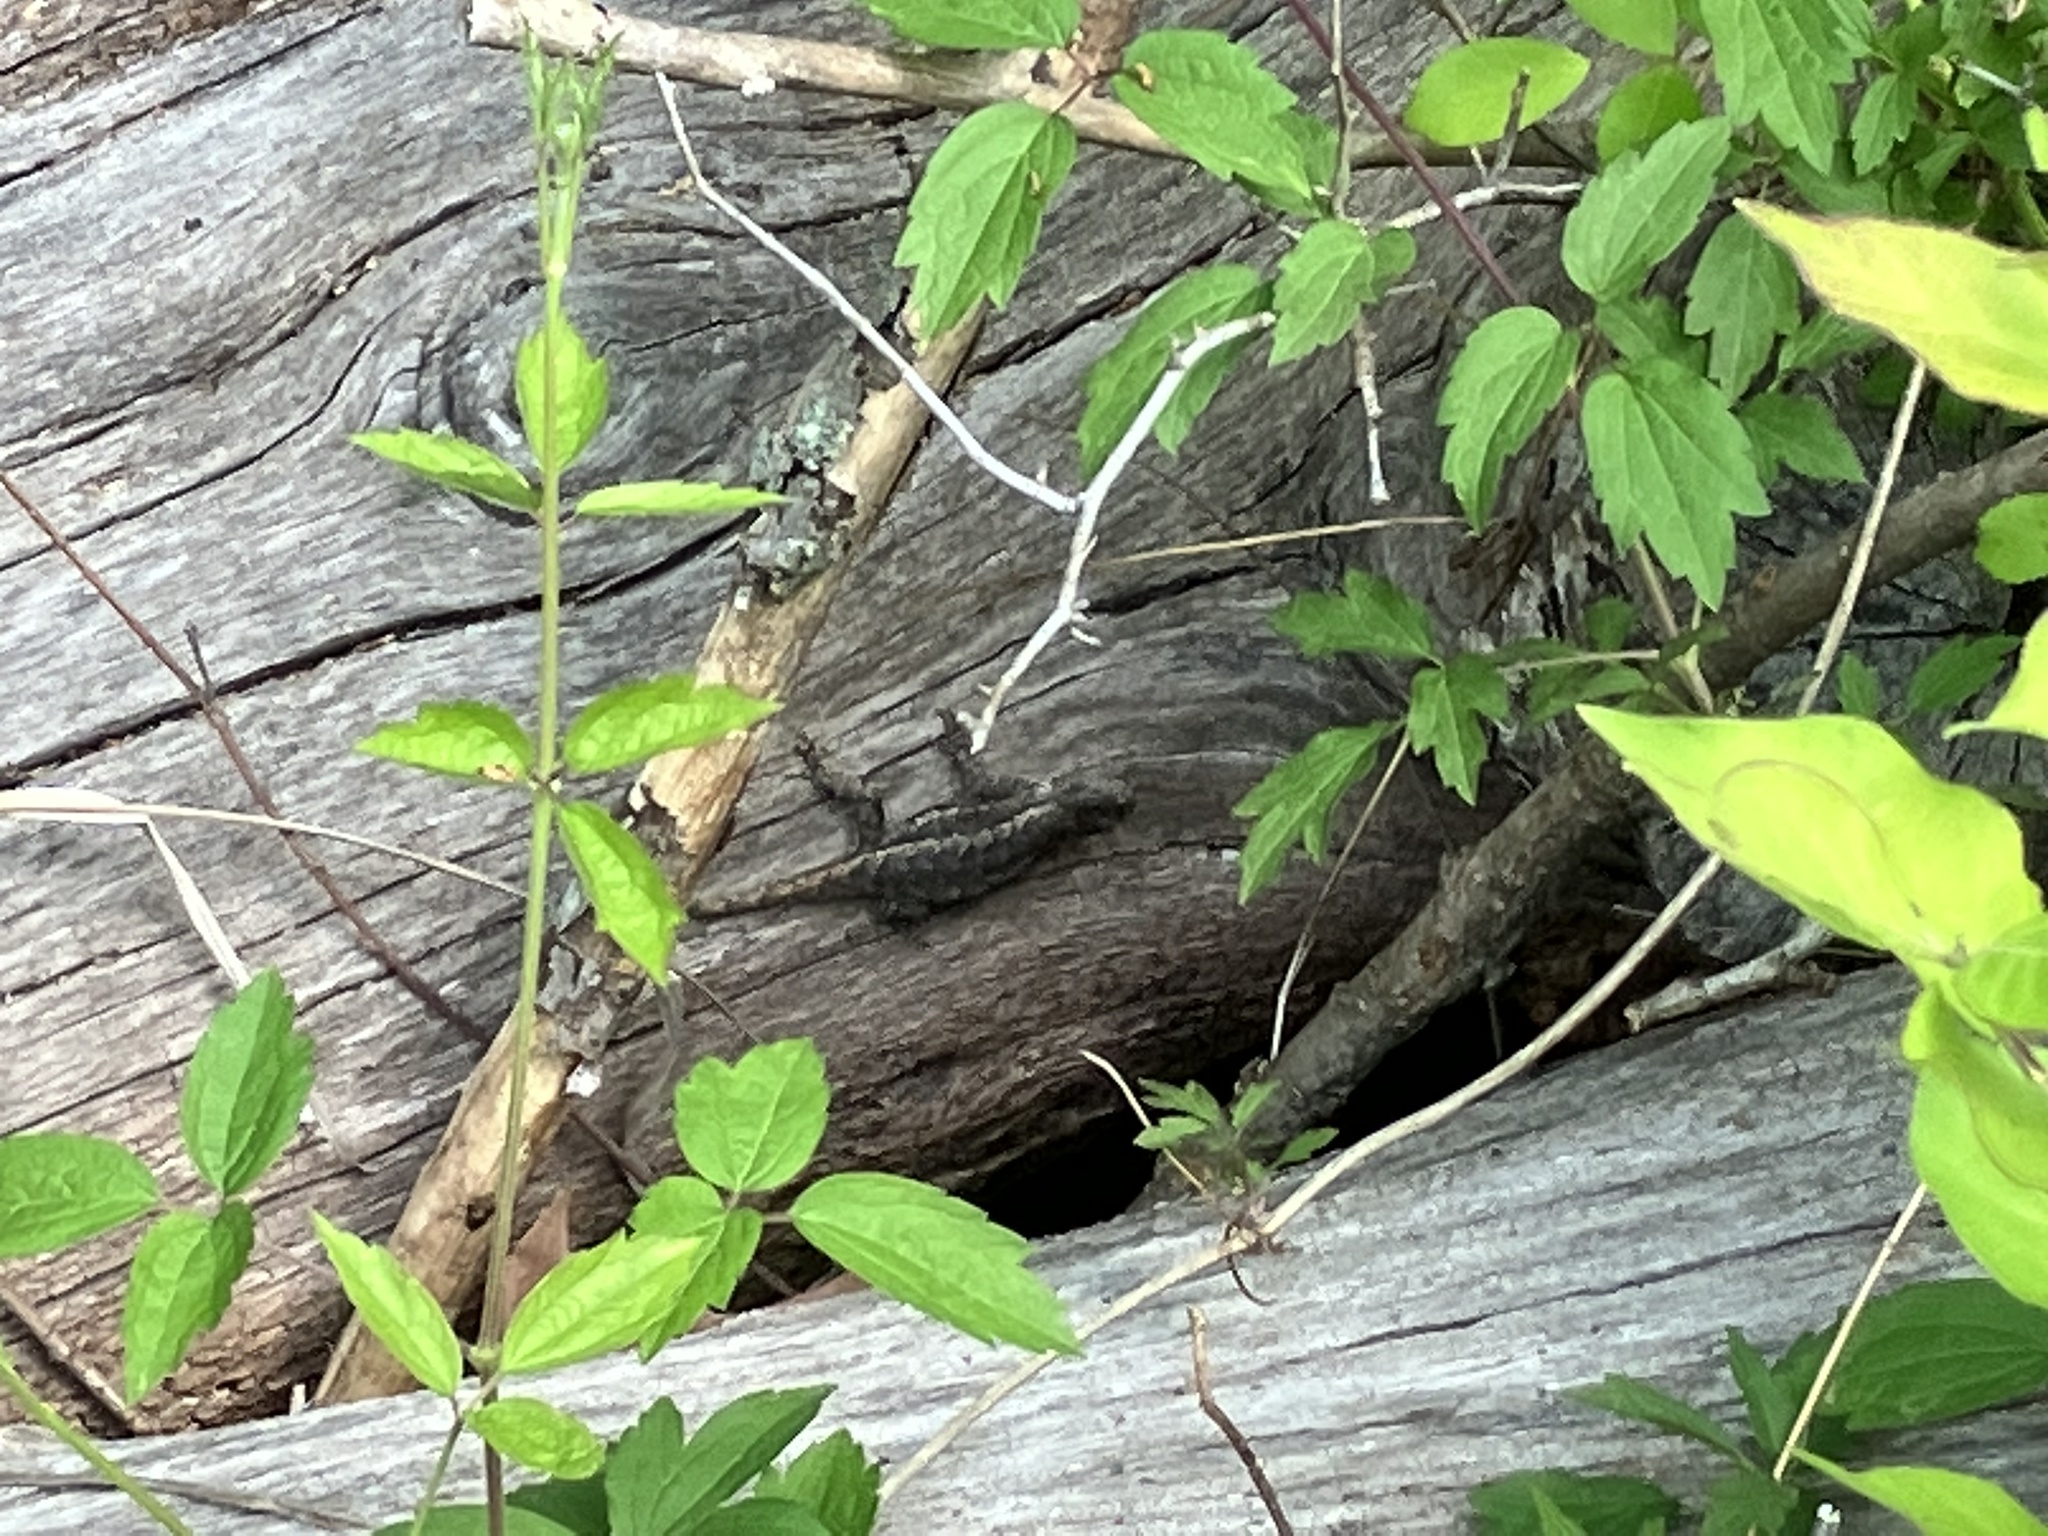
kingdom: Animalia
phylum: Chordata
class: Squamata
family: Phrynosomatidae
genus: Sceloporus
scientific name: Sceloporus consobrinus
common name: Southern prairie lizard
